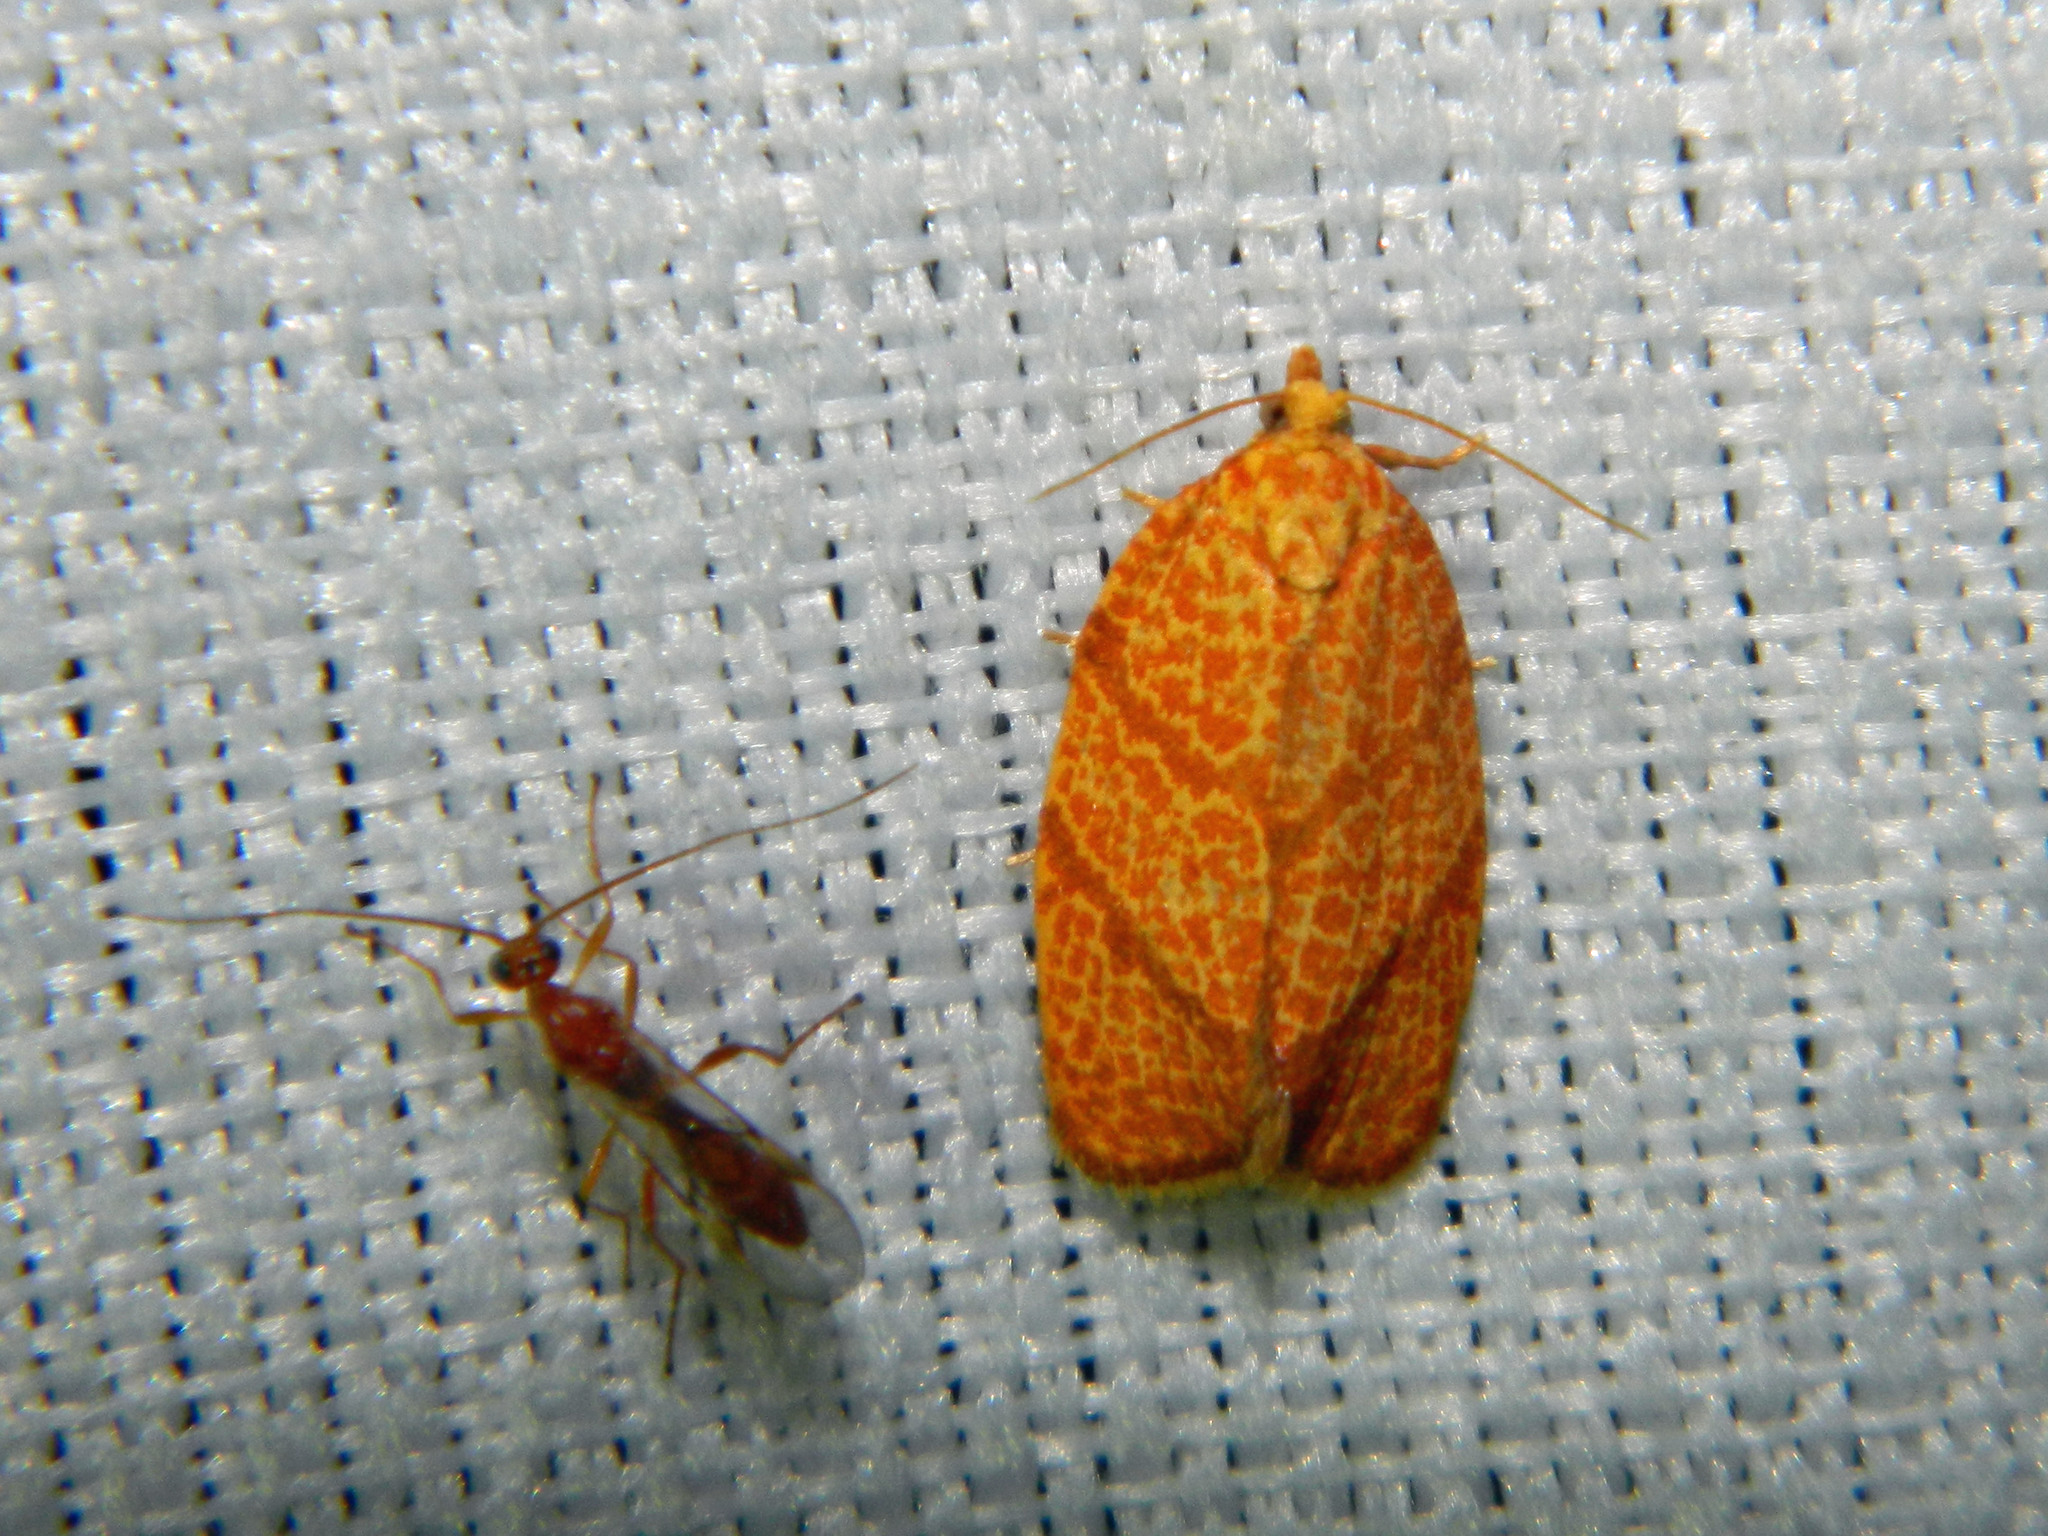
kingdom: Animalia
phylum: Arthropoda
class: Insecta
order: Lepidoptera
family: Tortricidae
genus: Argyrotaenia
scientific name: Argyrotaenia quadrifasciana
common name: Four-lined leafroller moth
